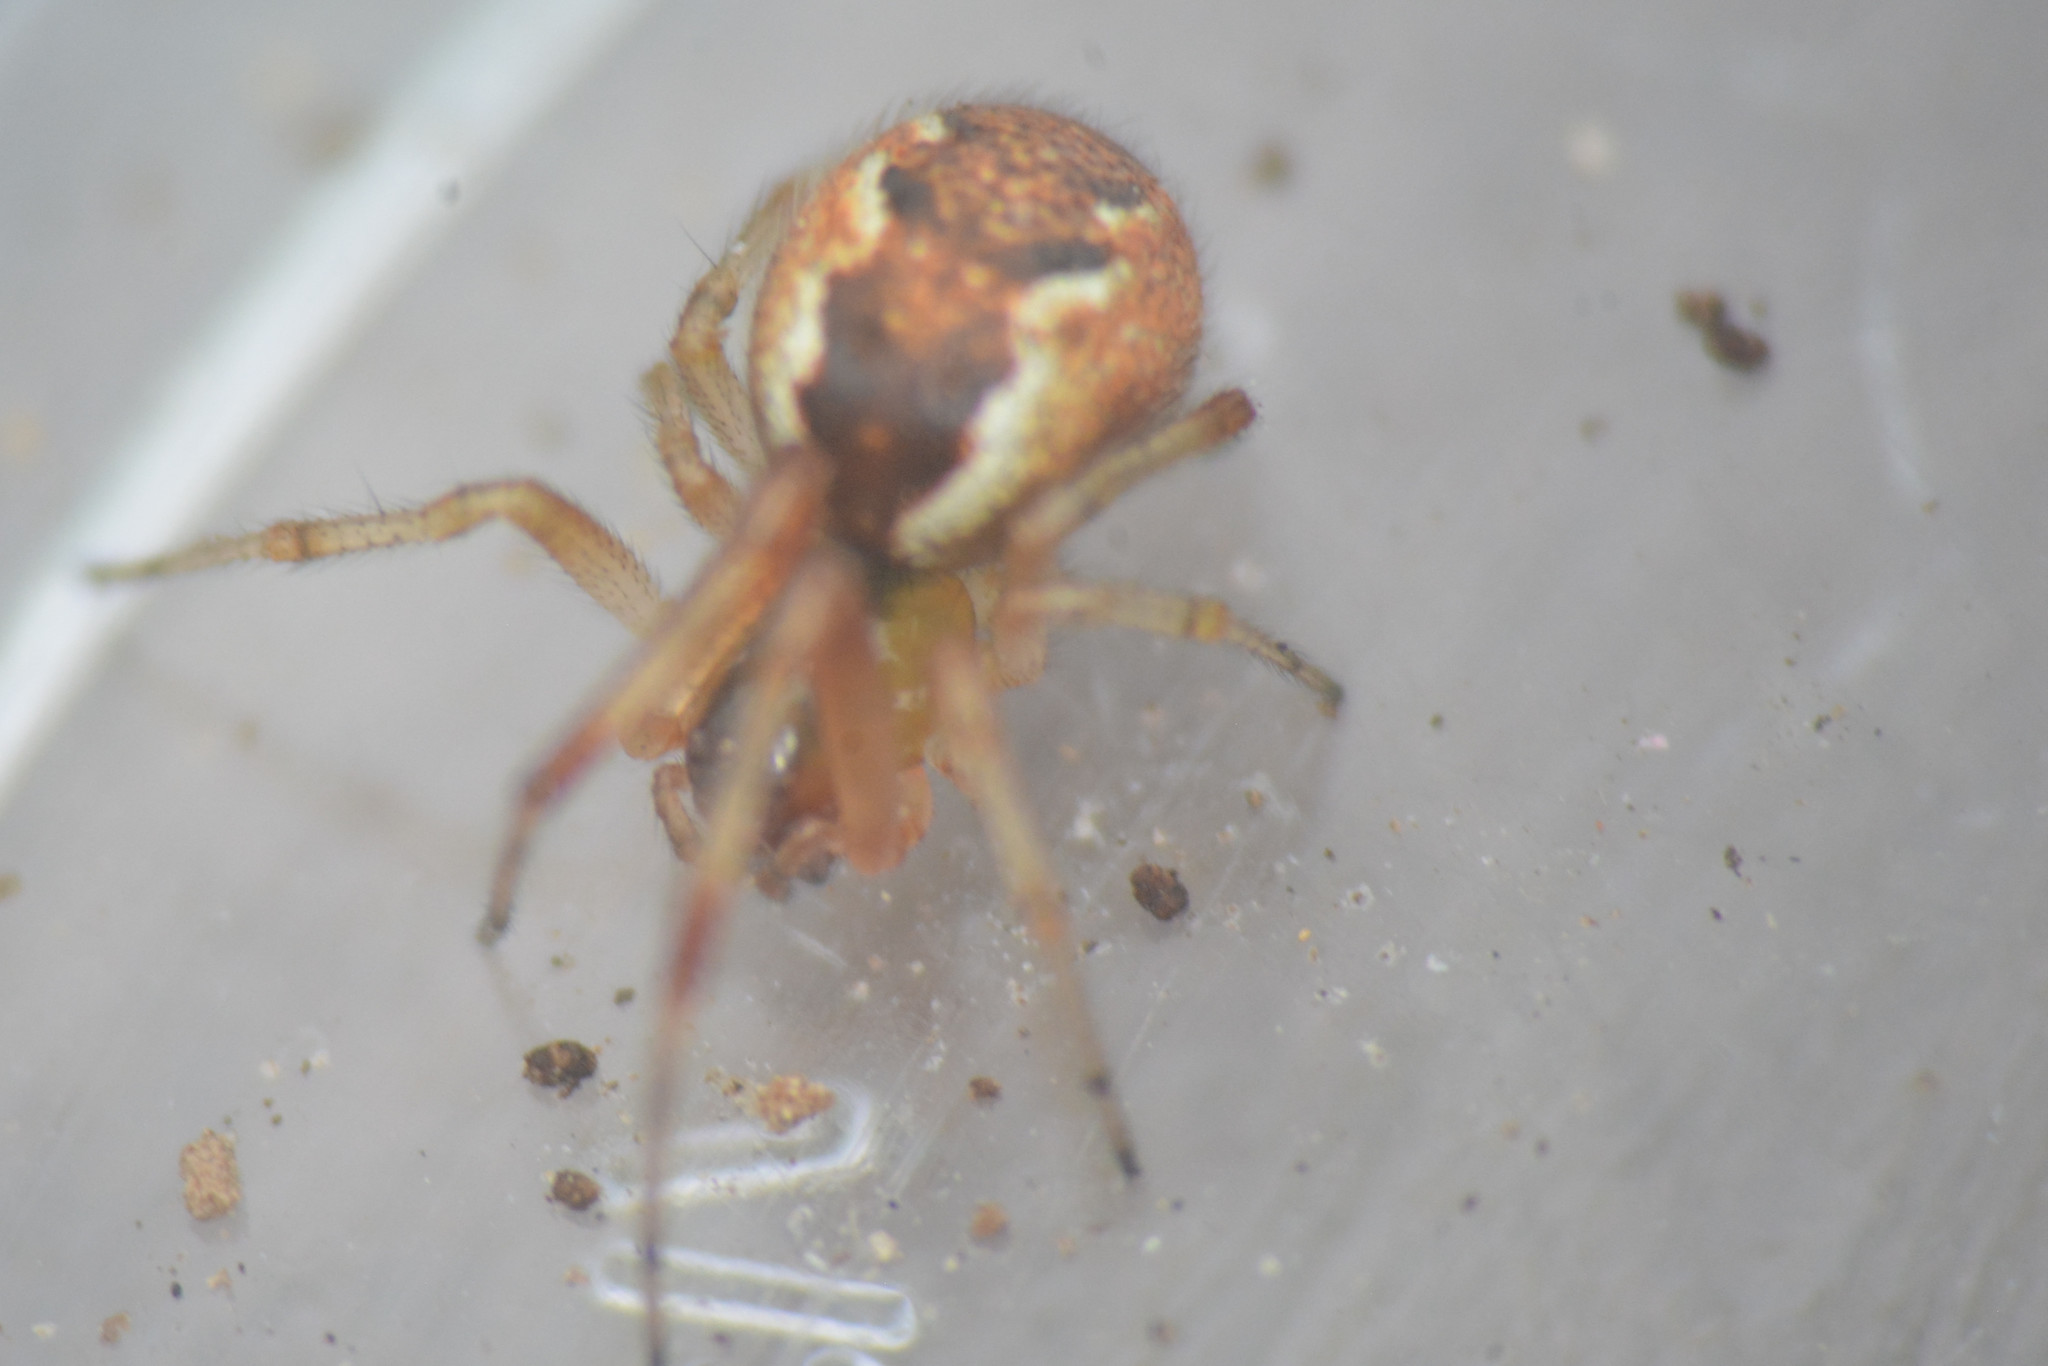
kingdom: Animalia
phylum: Arthropoda
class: Arachnida
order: Araneae
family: Theridiidae
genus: Anelosimus
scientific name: Anelosimus vittatus
